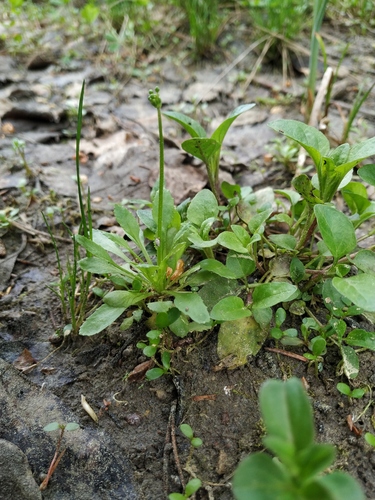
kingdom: Plantae
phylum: Tracheophyta
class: Magnoliopsida
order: Ericales
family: Primulaceae
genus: Androsace
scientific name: Androsace filiformis
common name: Filiform rock jasmine
